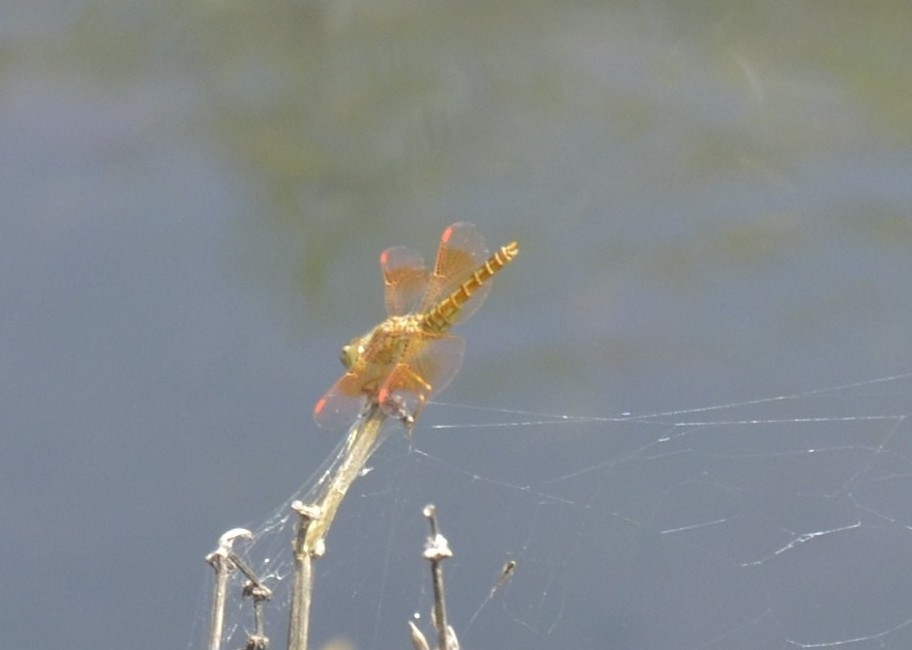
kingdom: Animalia
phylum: Arthropoda
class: Insecta
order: Odonata
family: Libellulidae
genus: Brachythemis
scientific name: Brachythemis contaminata
